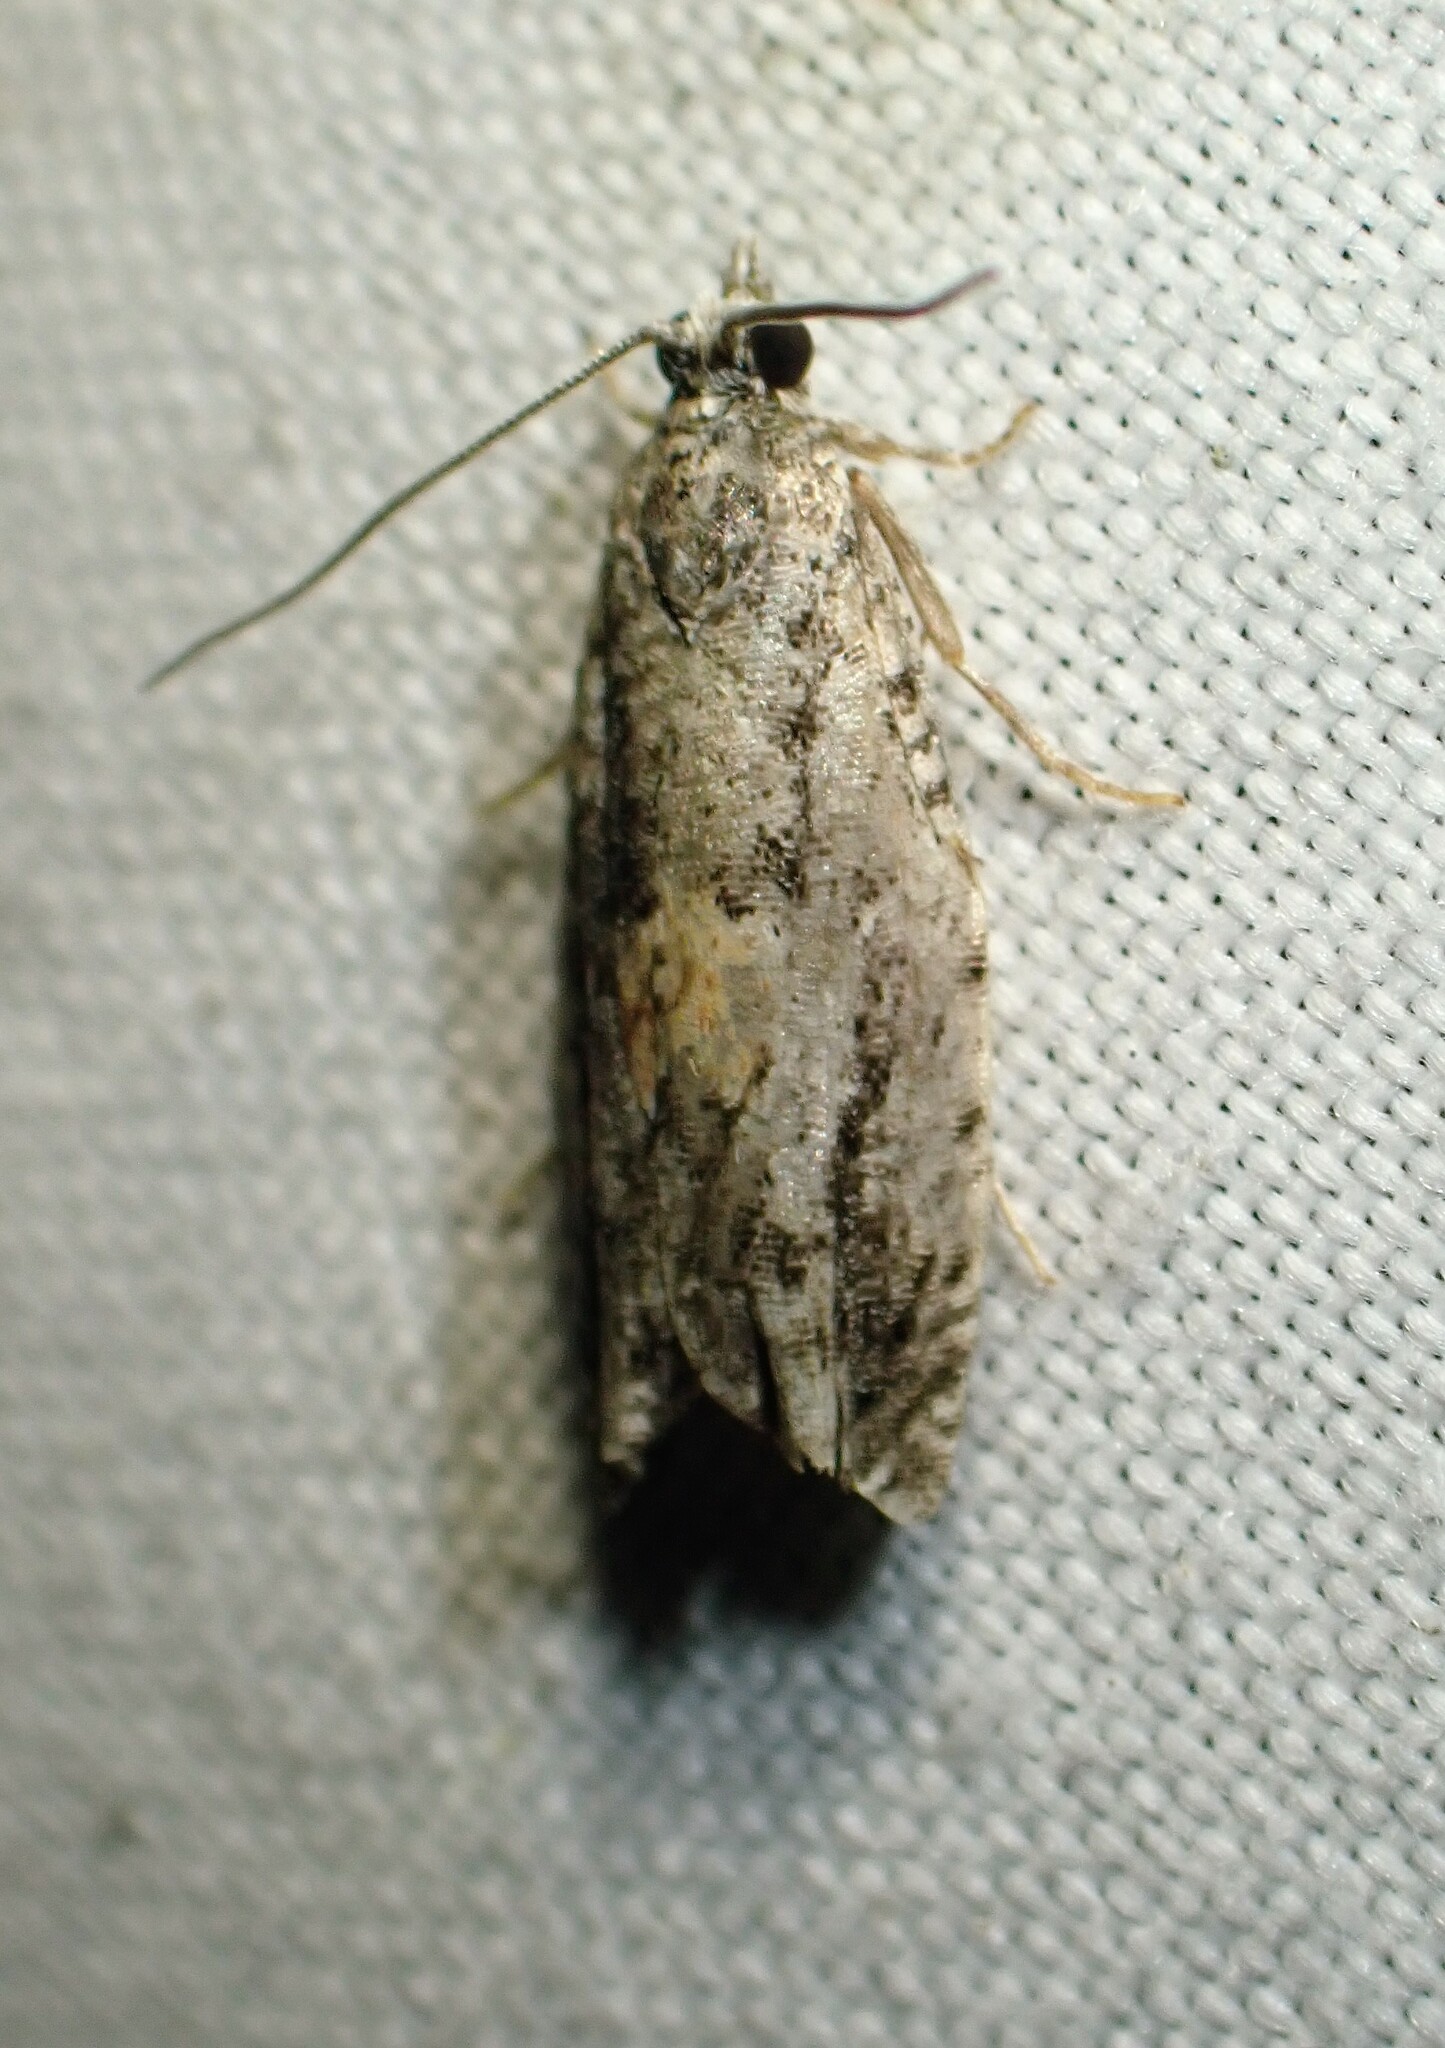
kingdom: Animalia
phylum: Arthropoda
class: Insecta
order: Lepidoptera
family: Tortricidae
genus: Epinotia
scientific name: Epinotia nisella
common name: Grey poplar bell
